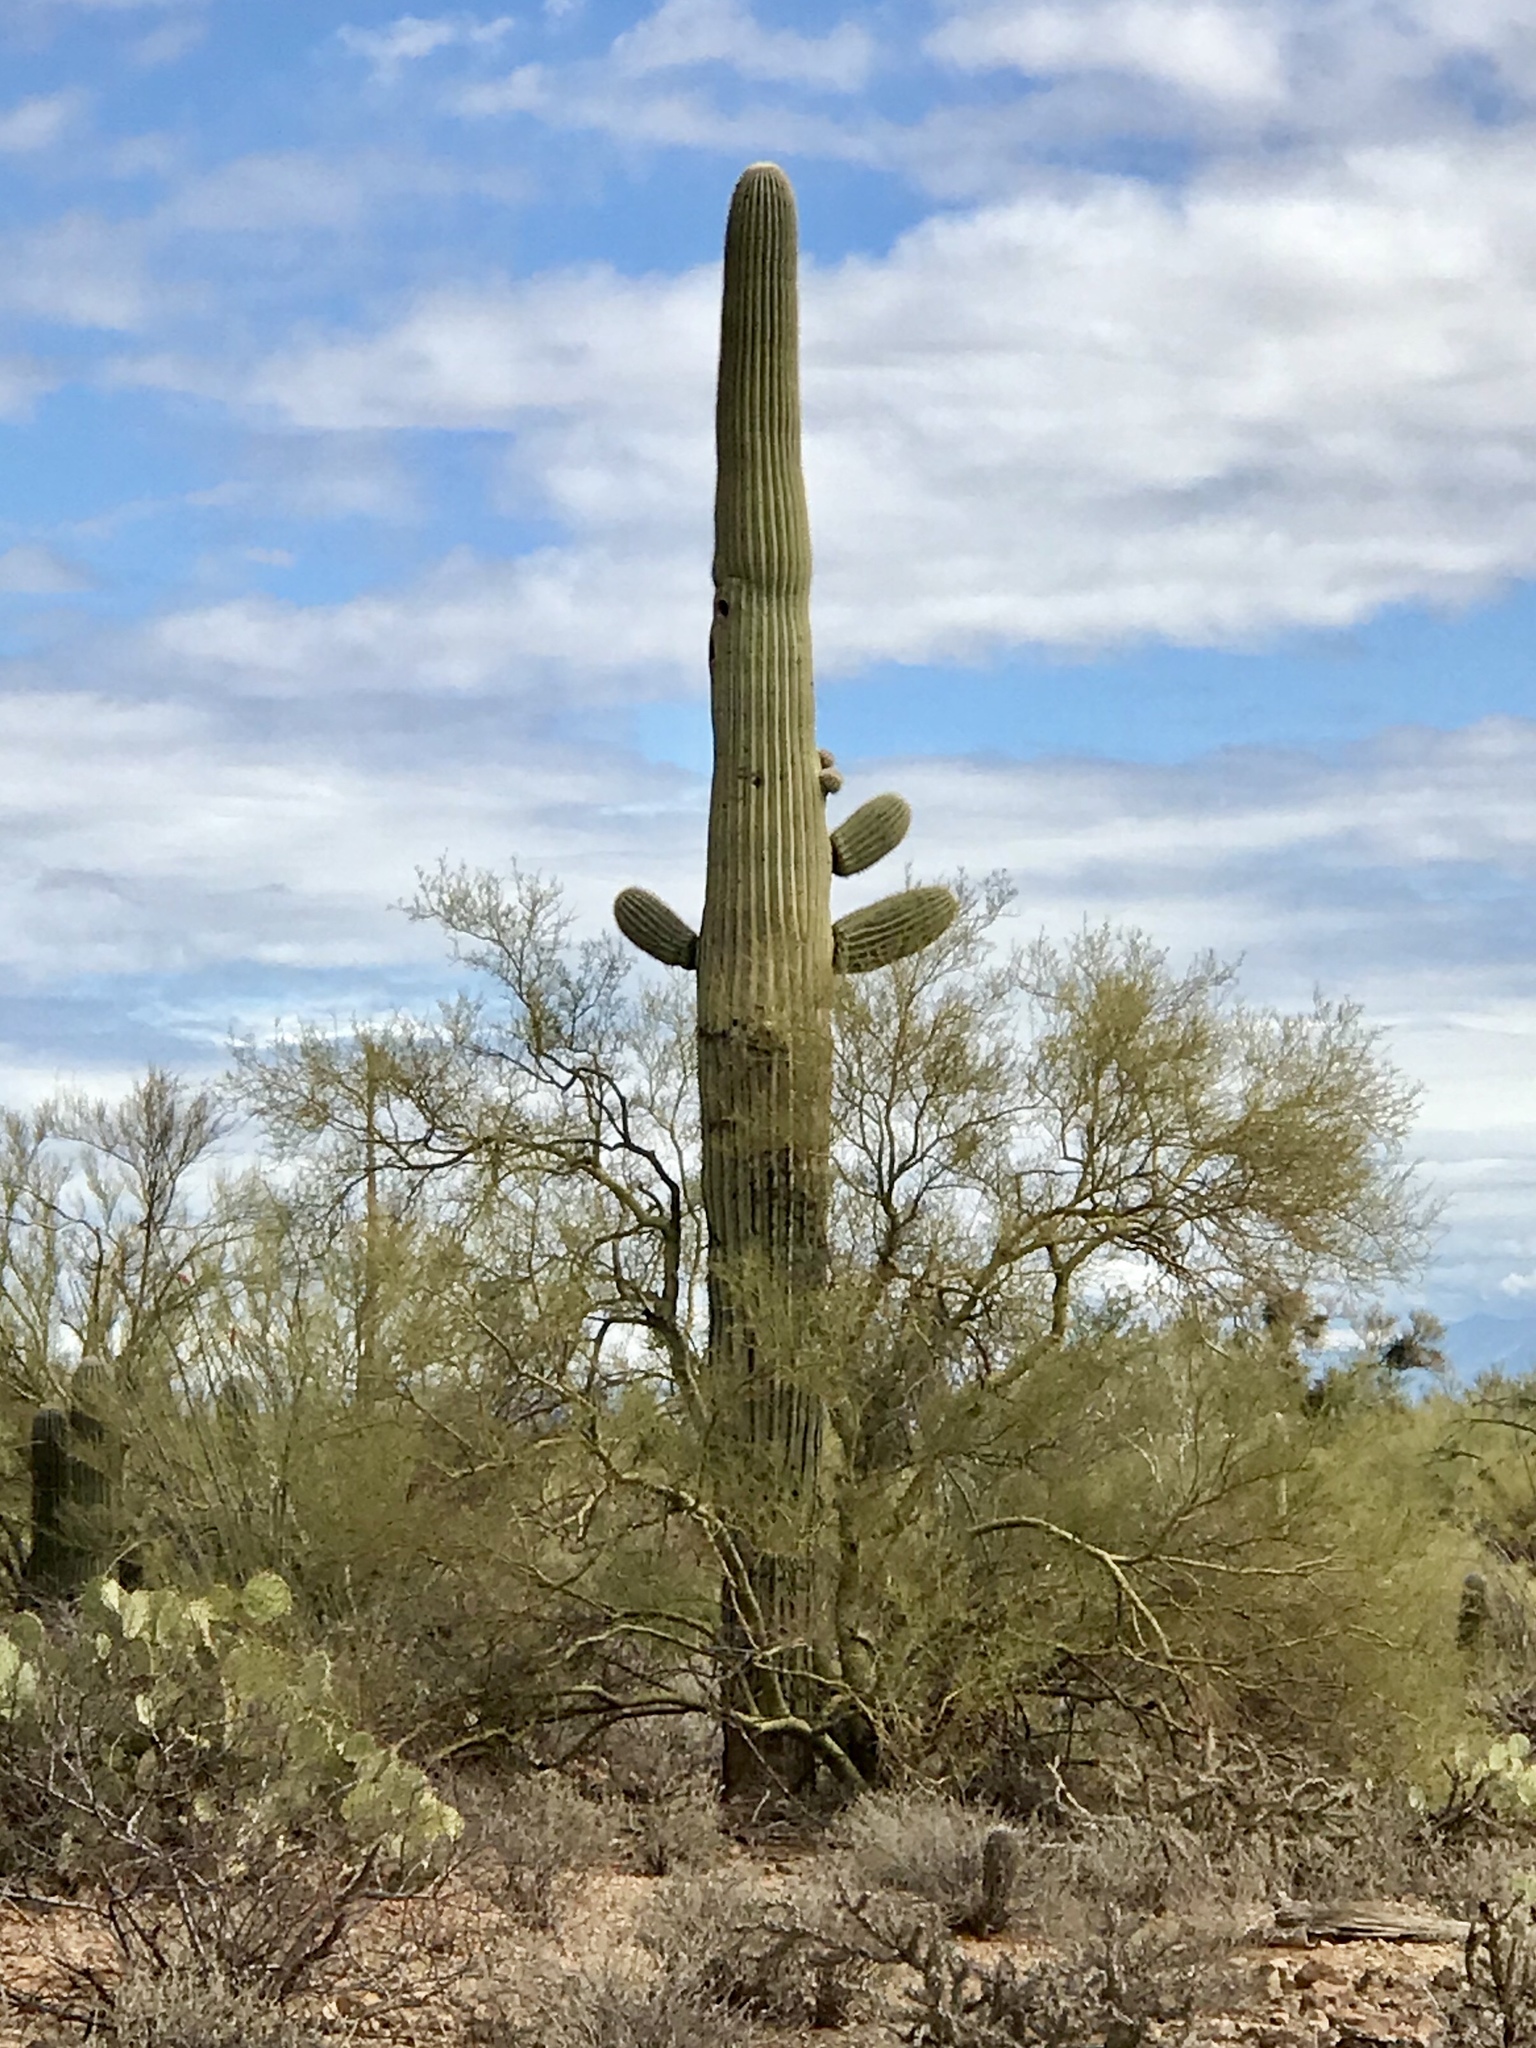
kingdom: Plantae
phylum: Tracheophyta
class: Magnoliopsida
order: Caryophyllales
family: Cactaceae
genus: Carnegiea
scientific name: Carnegiea gigantea
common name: Saguaro
